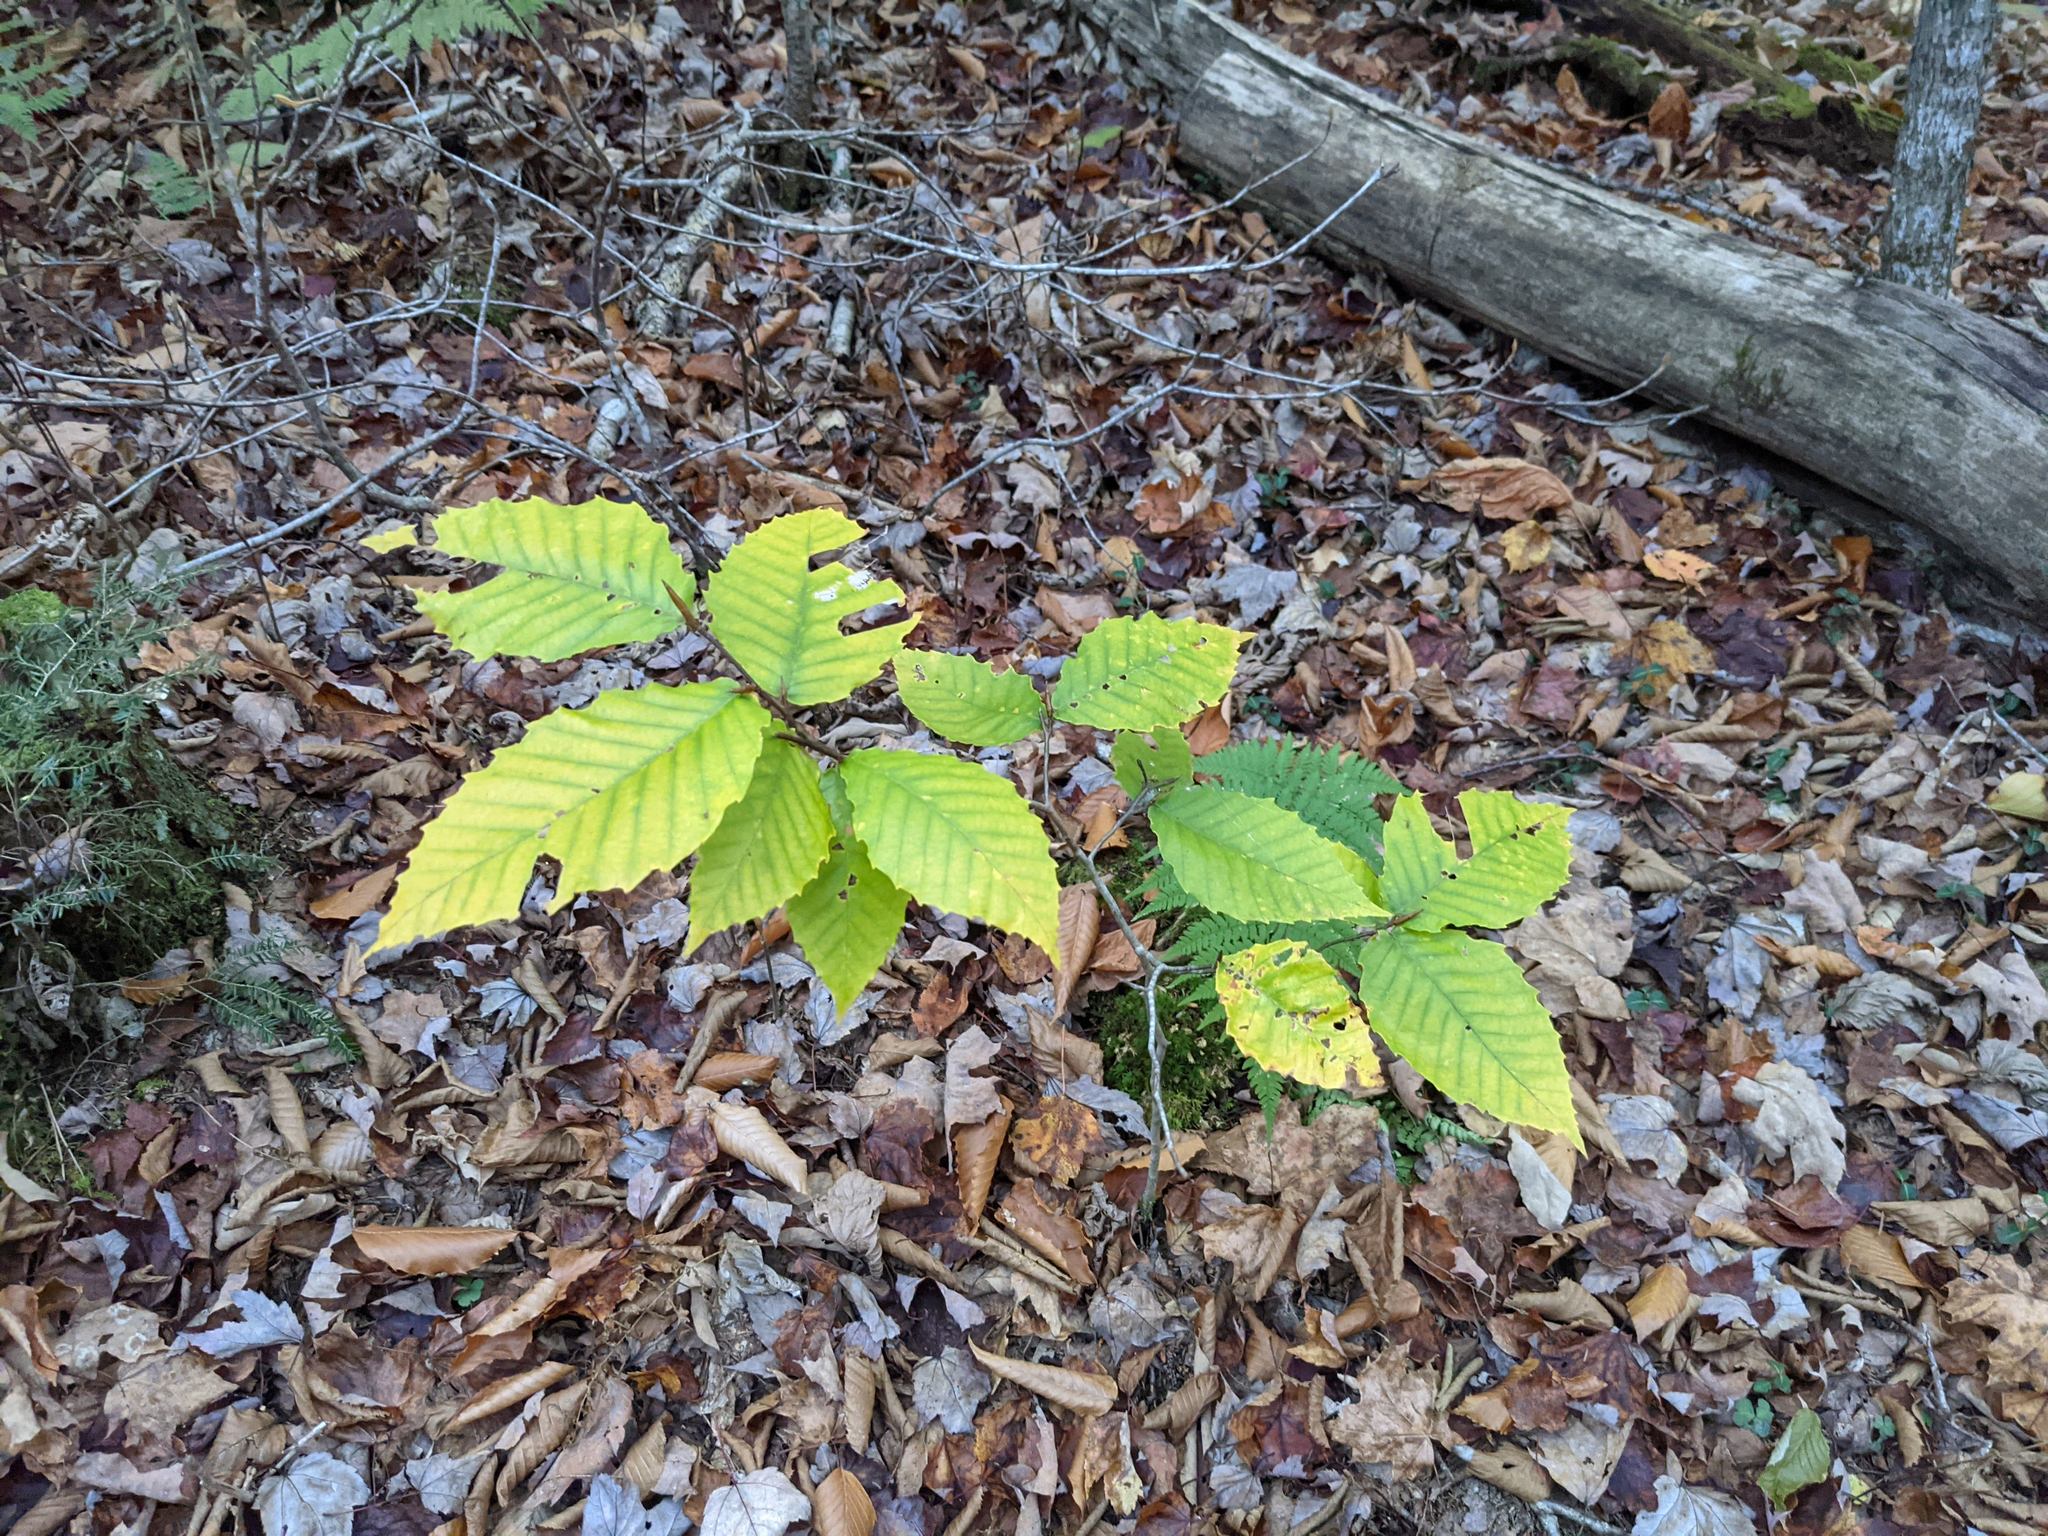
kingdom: Plantae
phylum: Tracheophyta
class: Magnoliopsida
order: Fagales
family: Fagaceae
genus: Fagus
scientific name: Fagus grandifolia
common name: American beech
